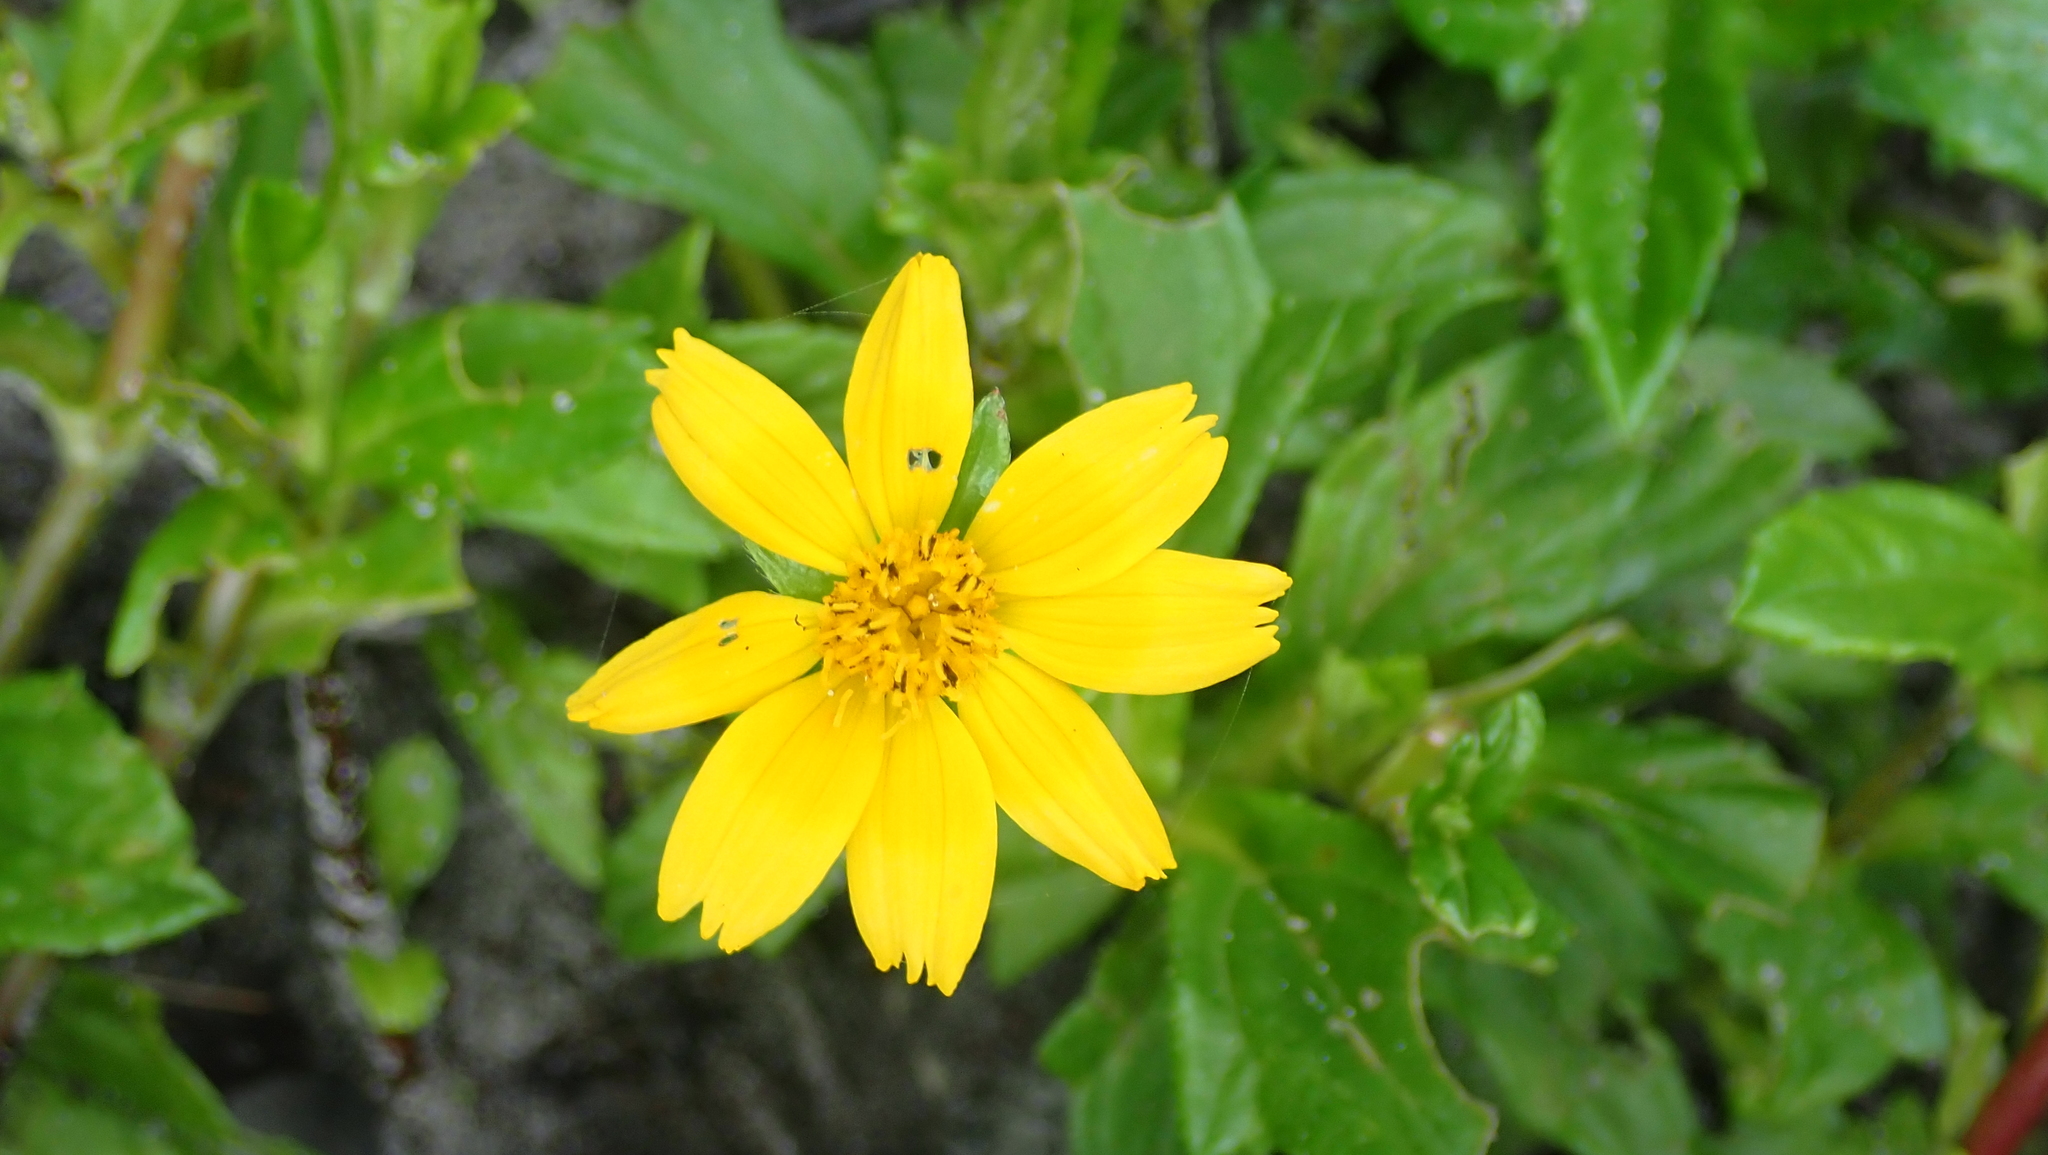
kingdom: Plantae
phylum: Tracheophyta
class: Magnoliopsida
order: Asterales
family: Asteraceae
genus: Sphagneticola
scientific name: Sphagneticola trilobata
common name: Bay biscayne creeping-oxeye
